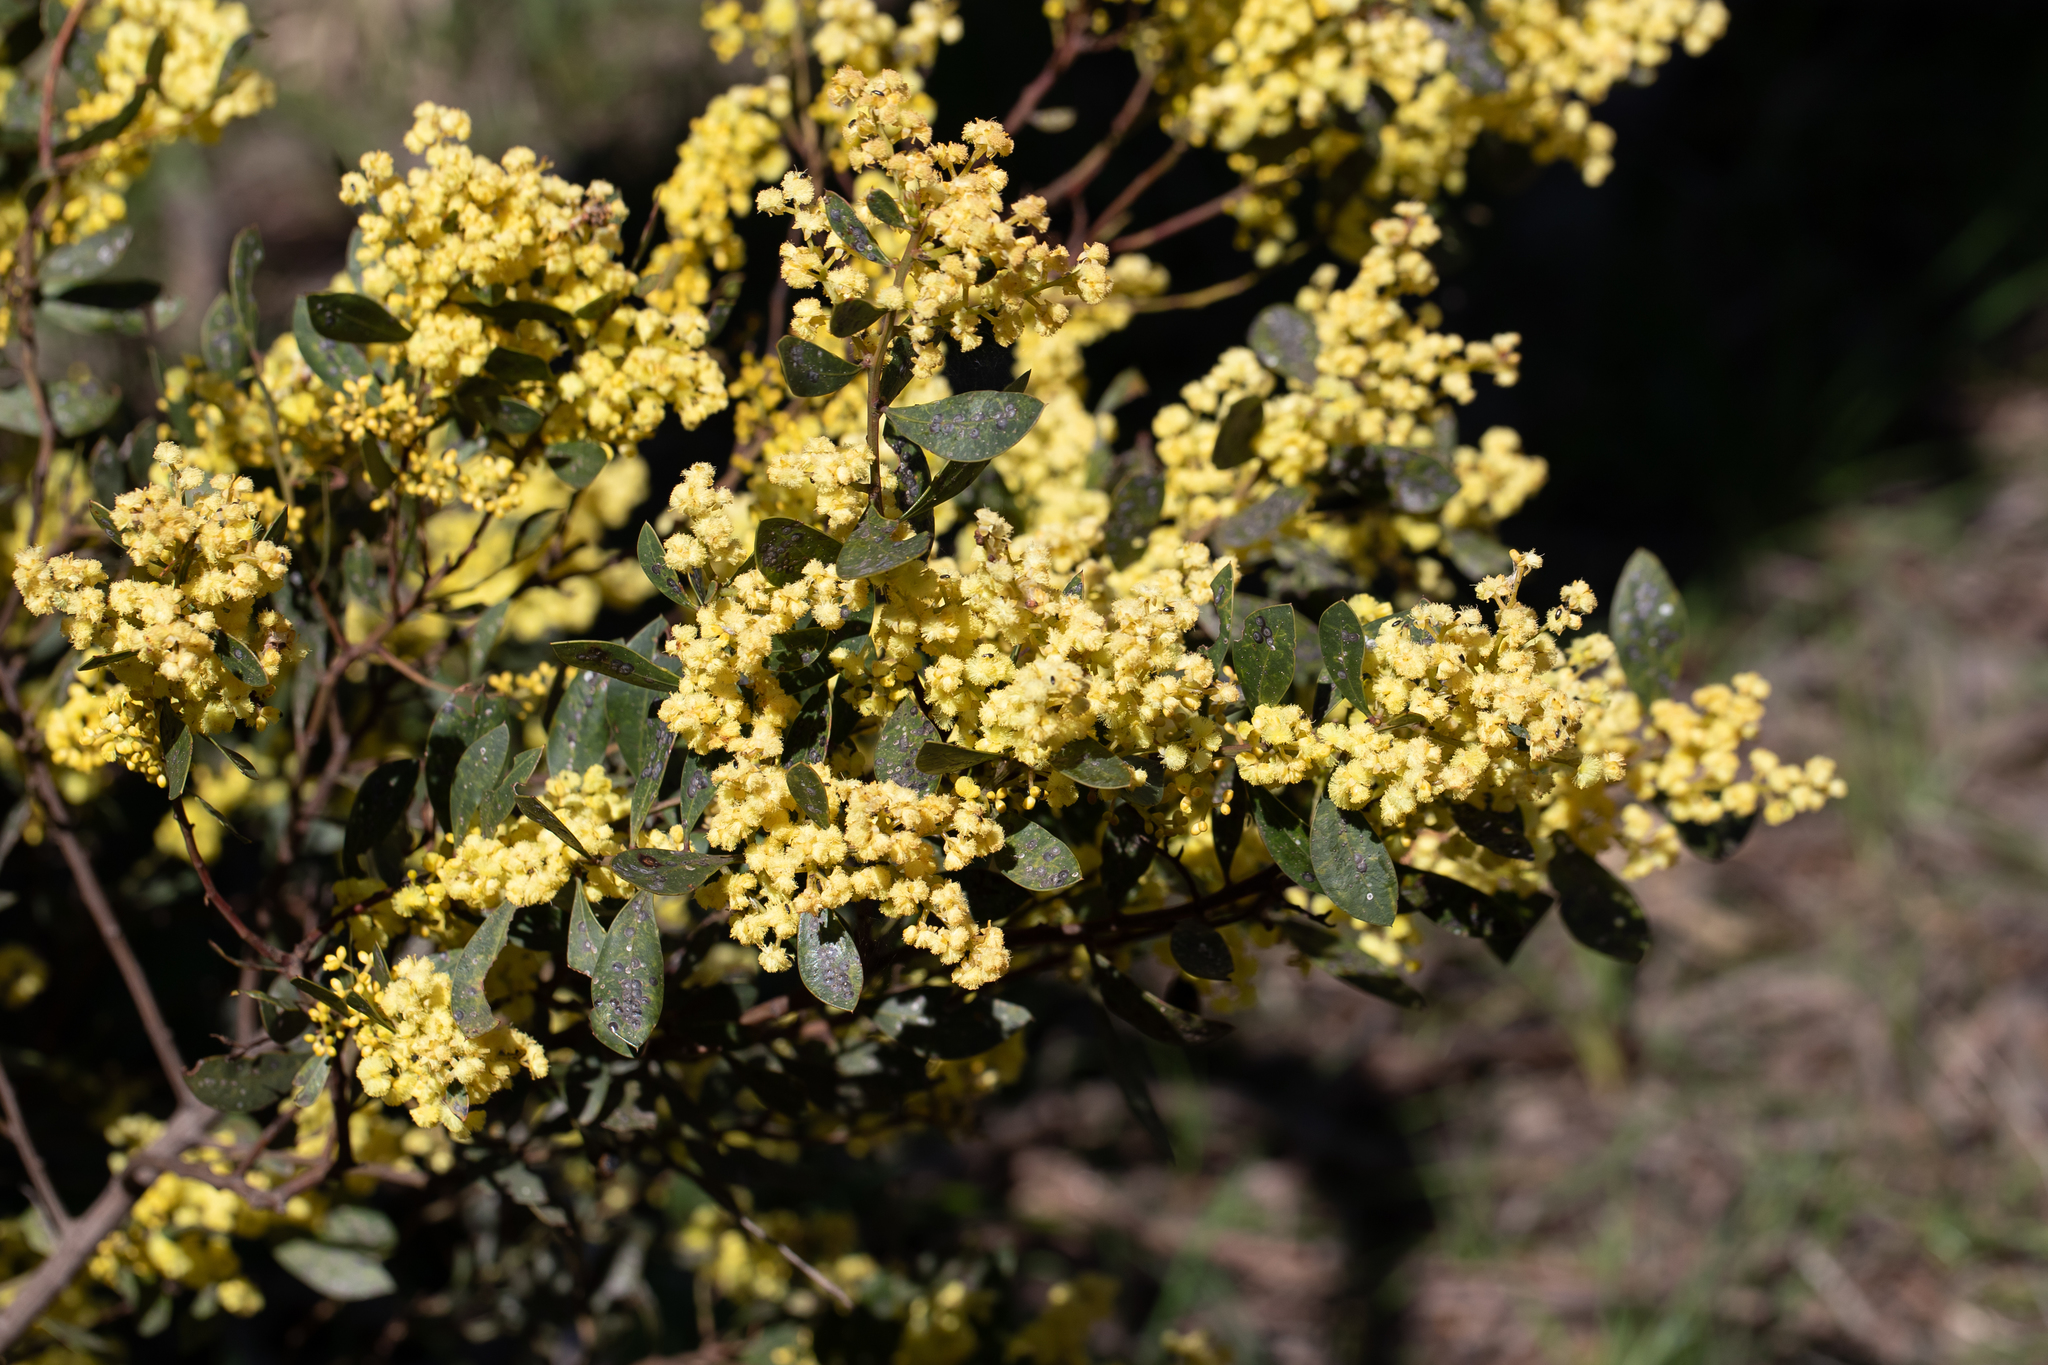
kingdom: Plantae
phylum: Tracheophyta
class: Magnoliopsida
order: Fabales
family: Fabaceae
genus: Acacia
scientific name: Acacia myrtifolia
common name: Myrtle wattle
